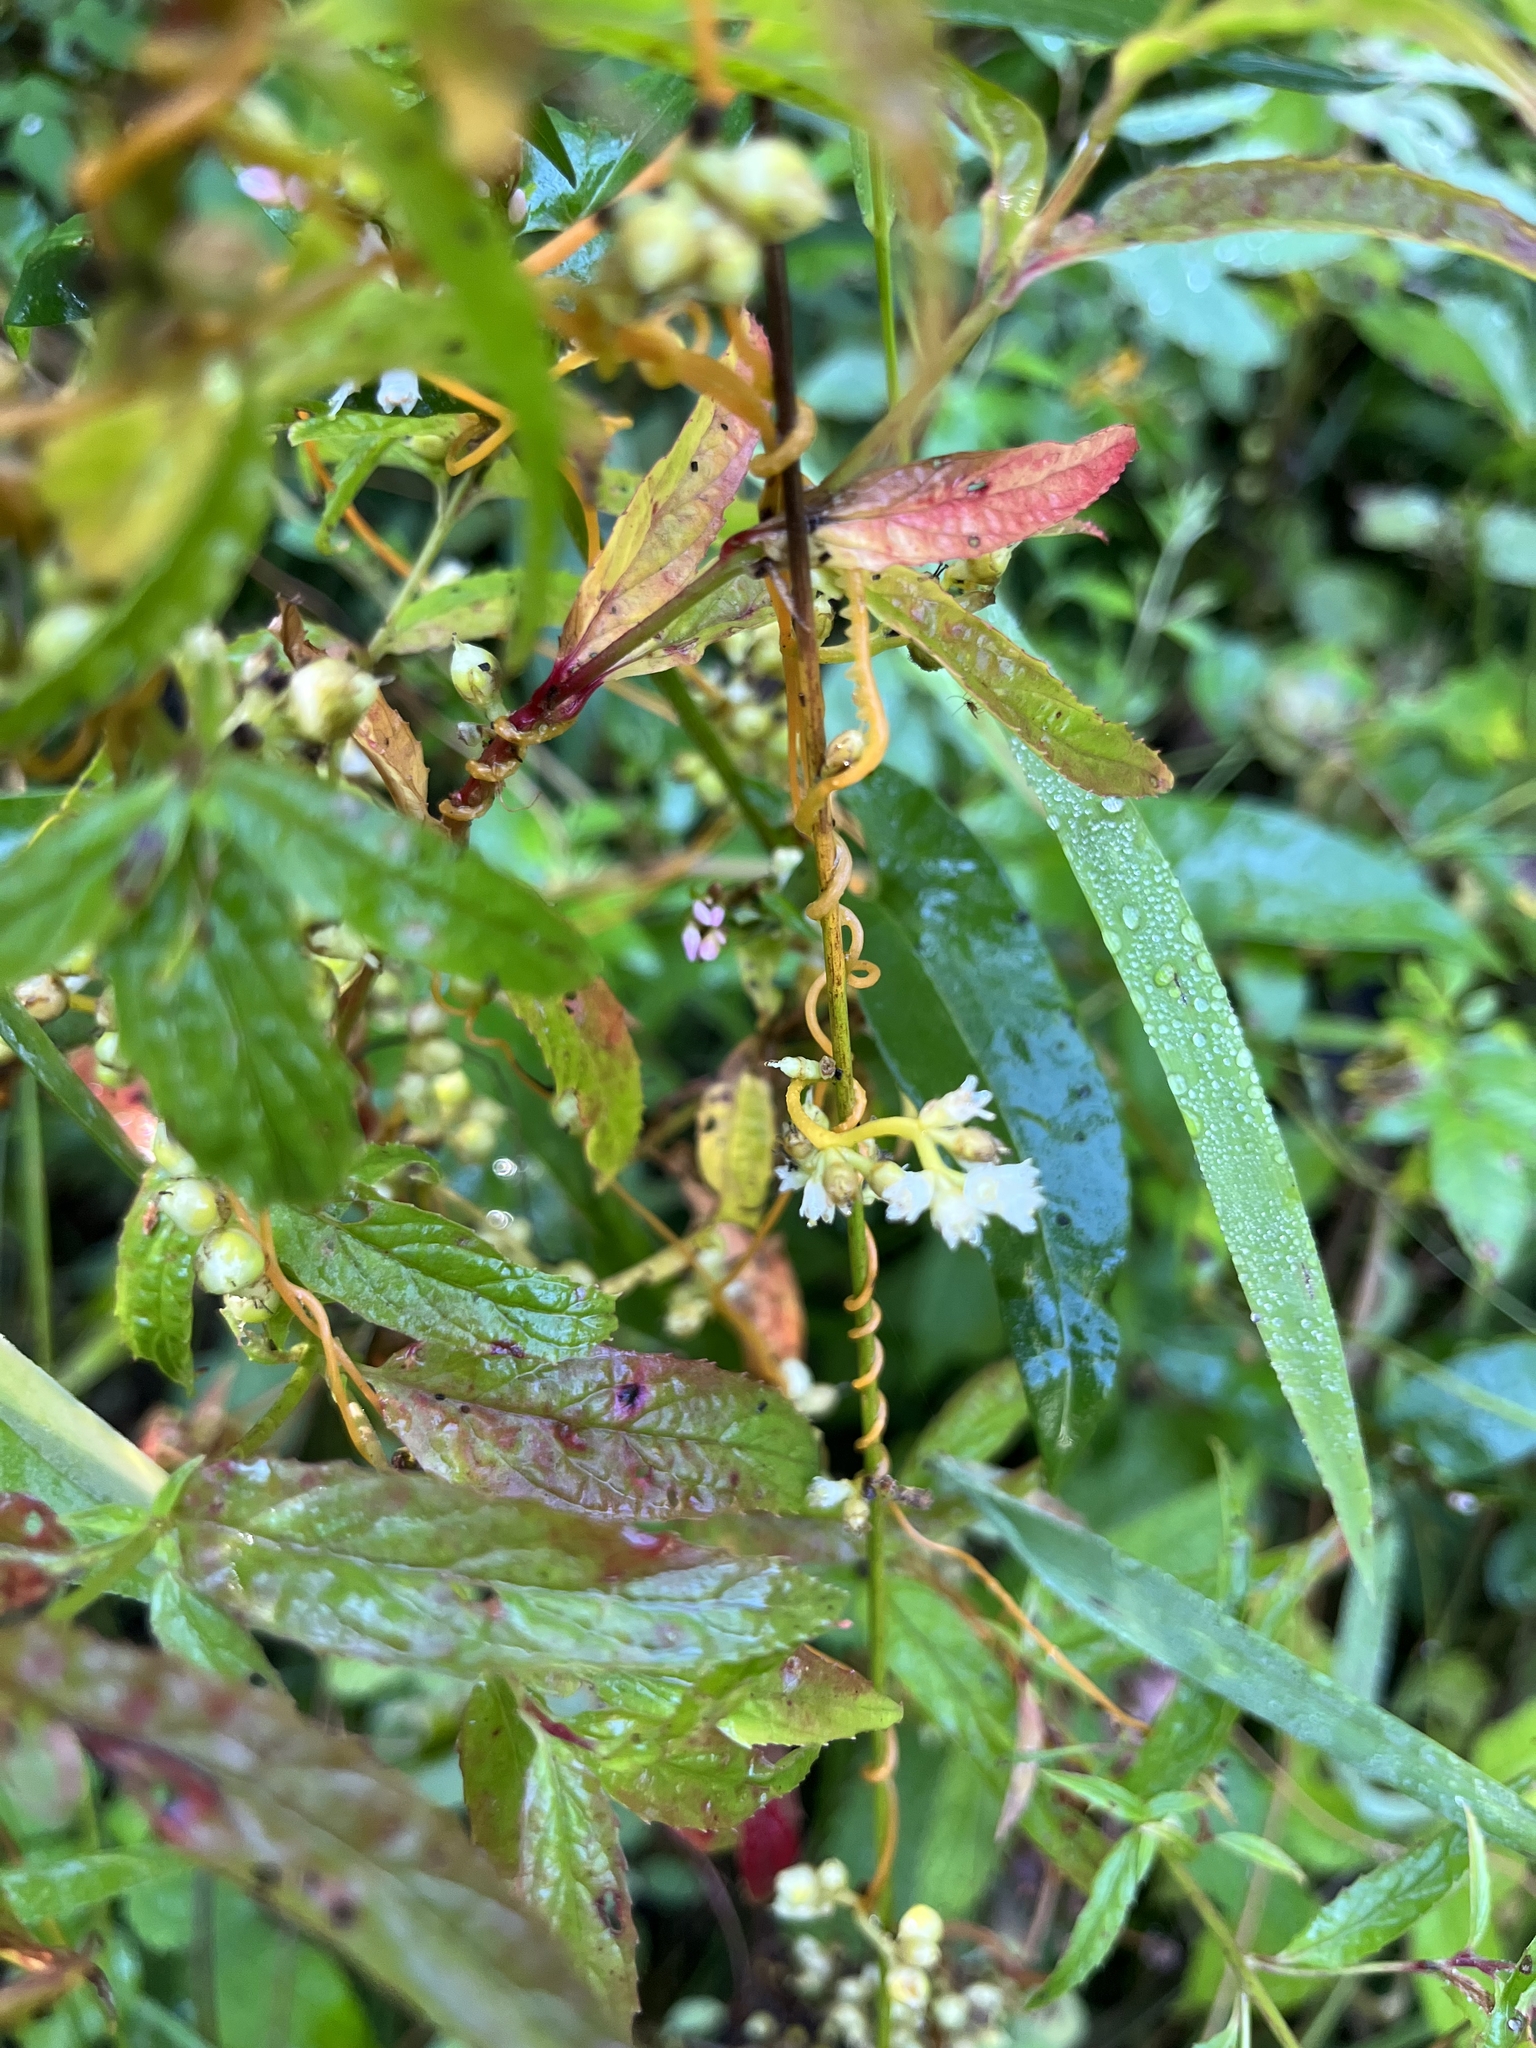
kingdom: Plantae
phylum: Tracheophyta
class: Magnoliopsida
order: Solanales
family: Convolvulaceae
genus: Cuscuta
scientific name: Cuscuta gronovii
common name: Common dodder
